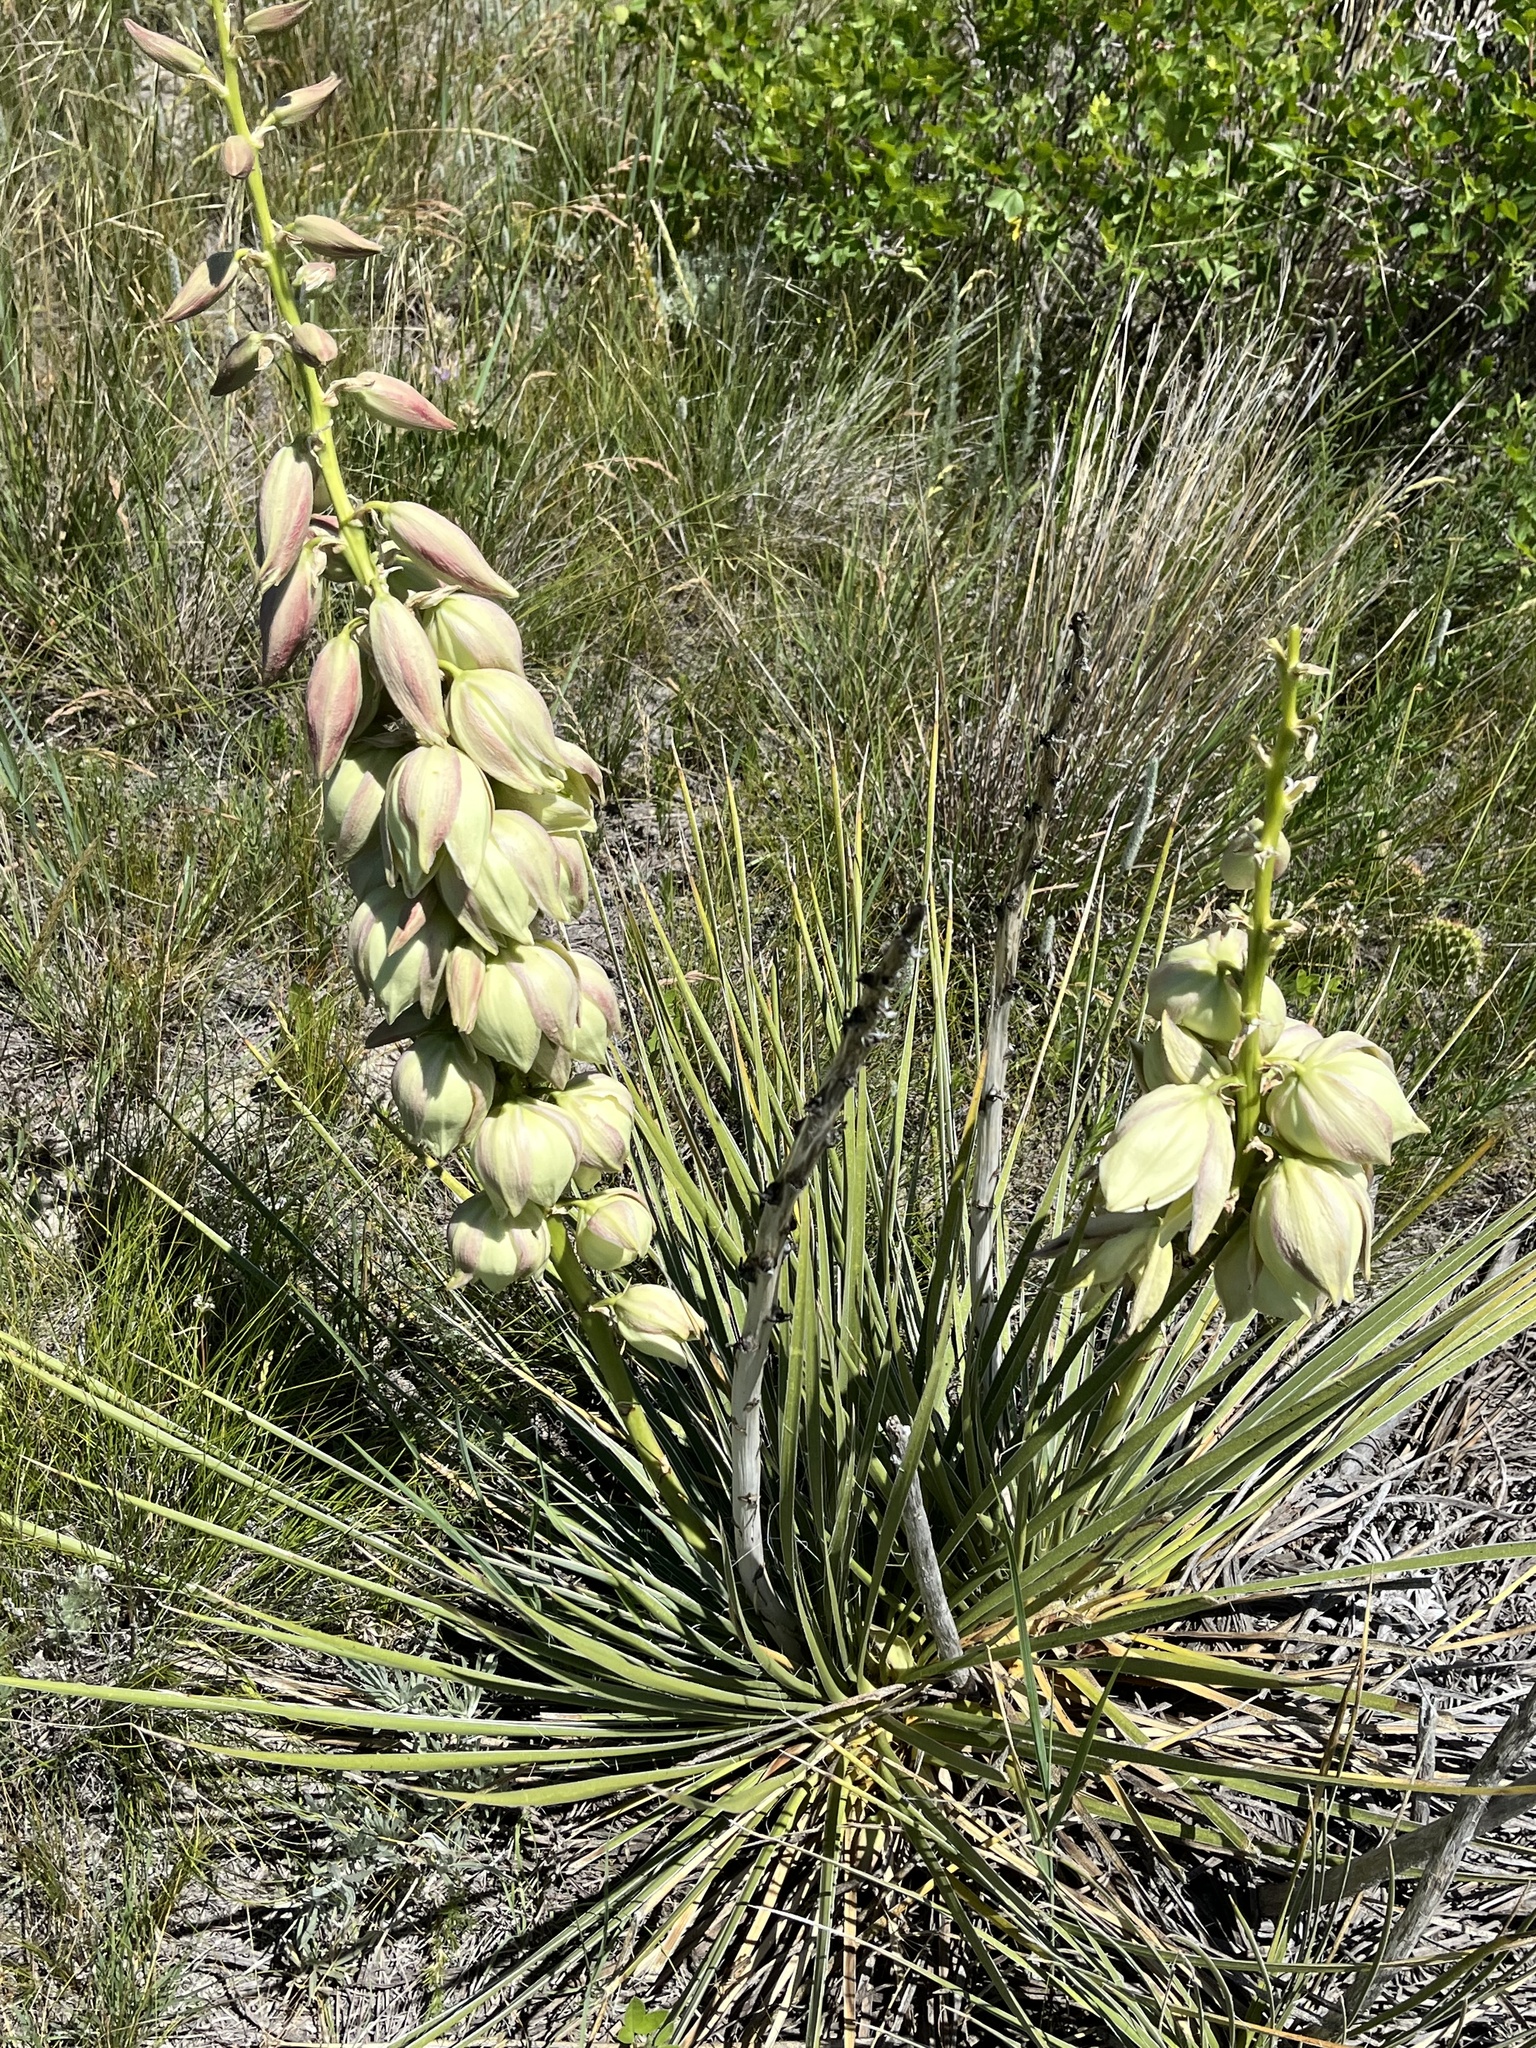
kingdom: Plantae
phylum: Tracheophyta
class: Liliopsida
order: Asparagales
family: Asparagaceae
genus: Yucca
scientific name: Yucca glauca
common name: Great plains yucca
